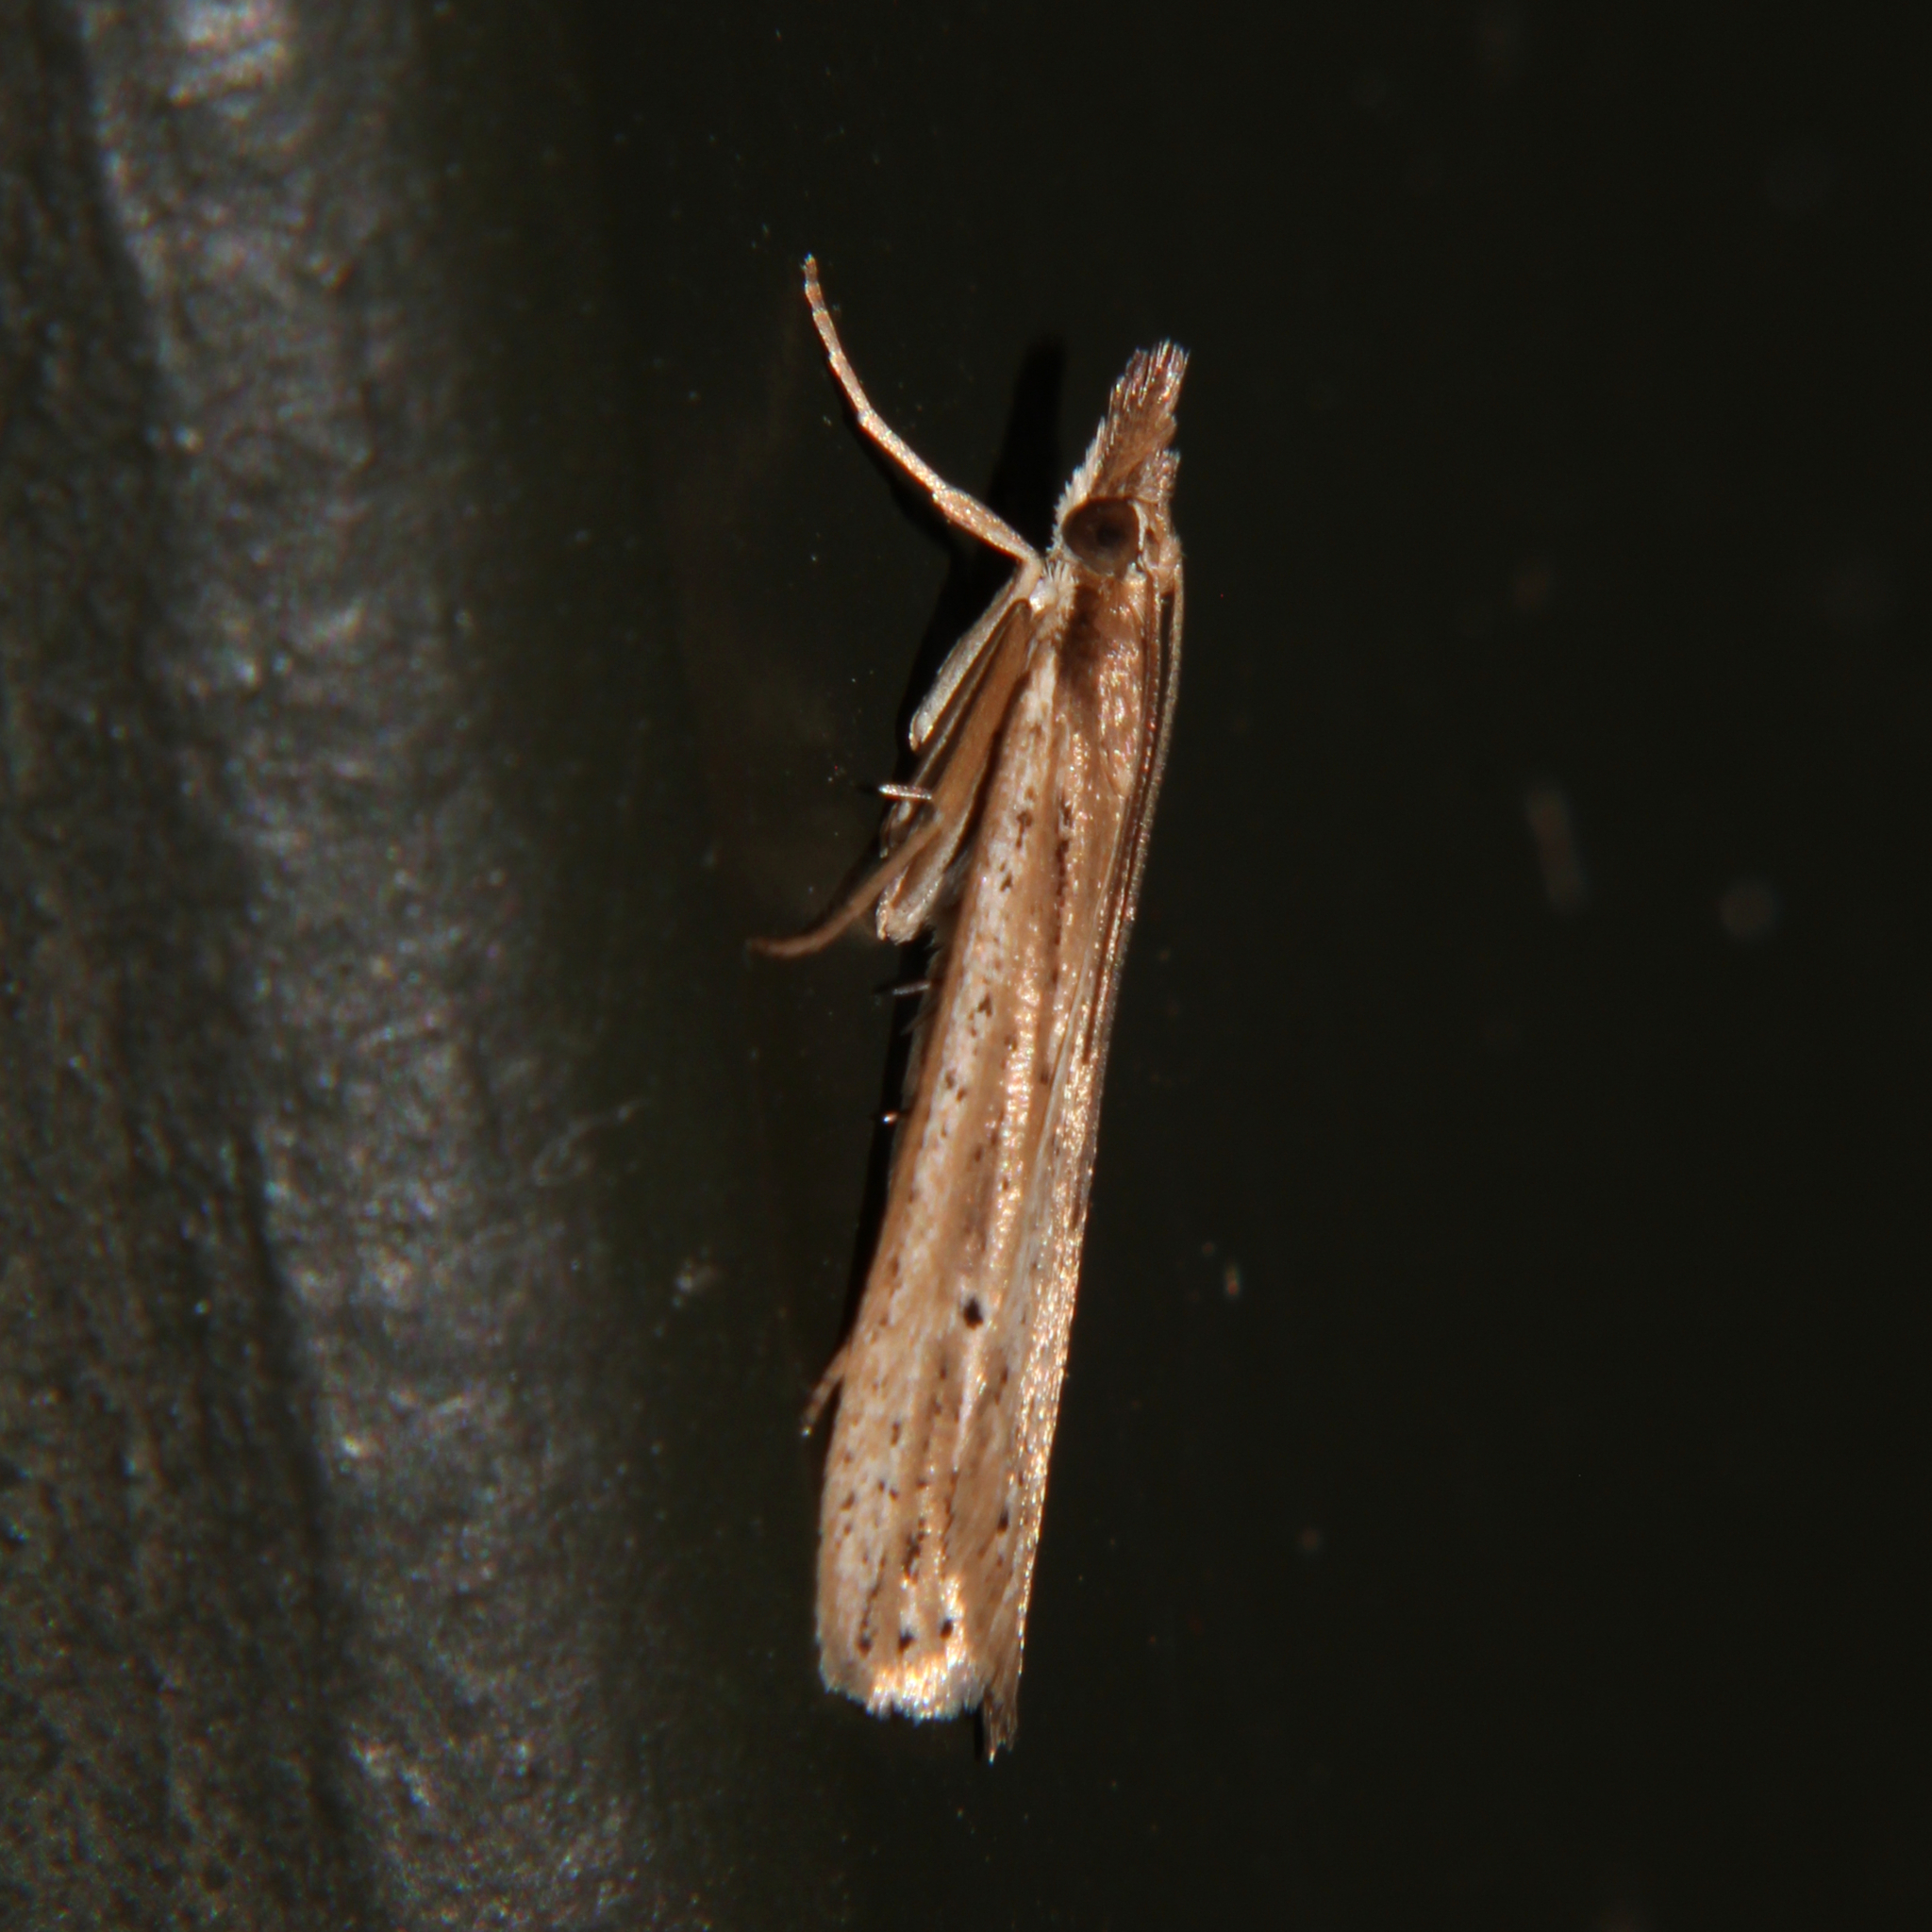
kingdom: Animalia
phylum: Arthropoda
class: Insecta
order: Lepidoptera
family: Crambidae
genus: Eudonia
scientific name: Eudonia sabulosella
